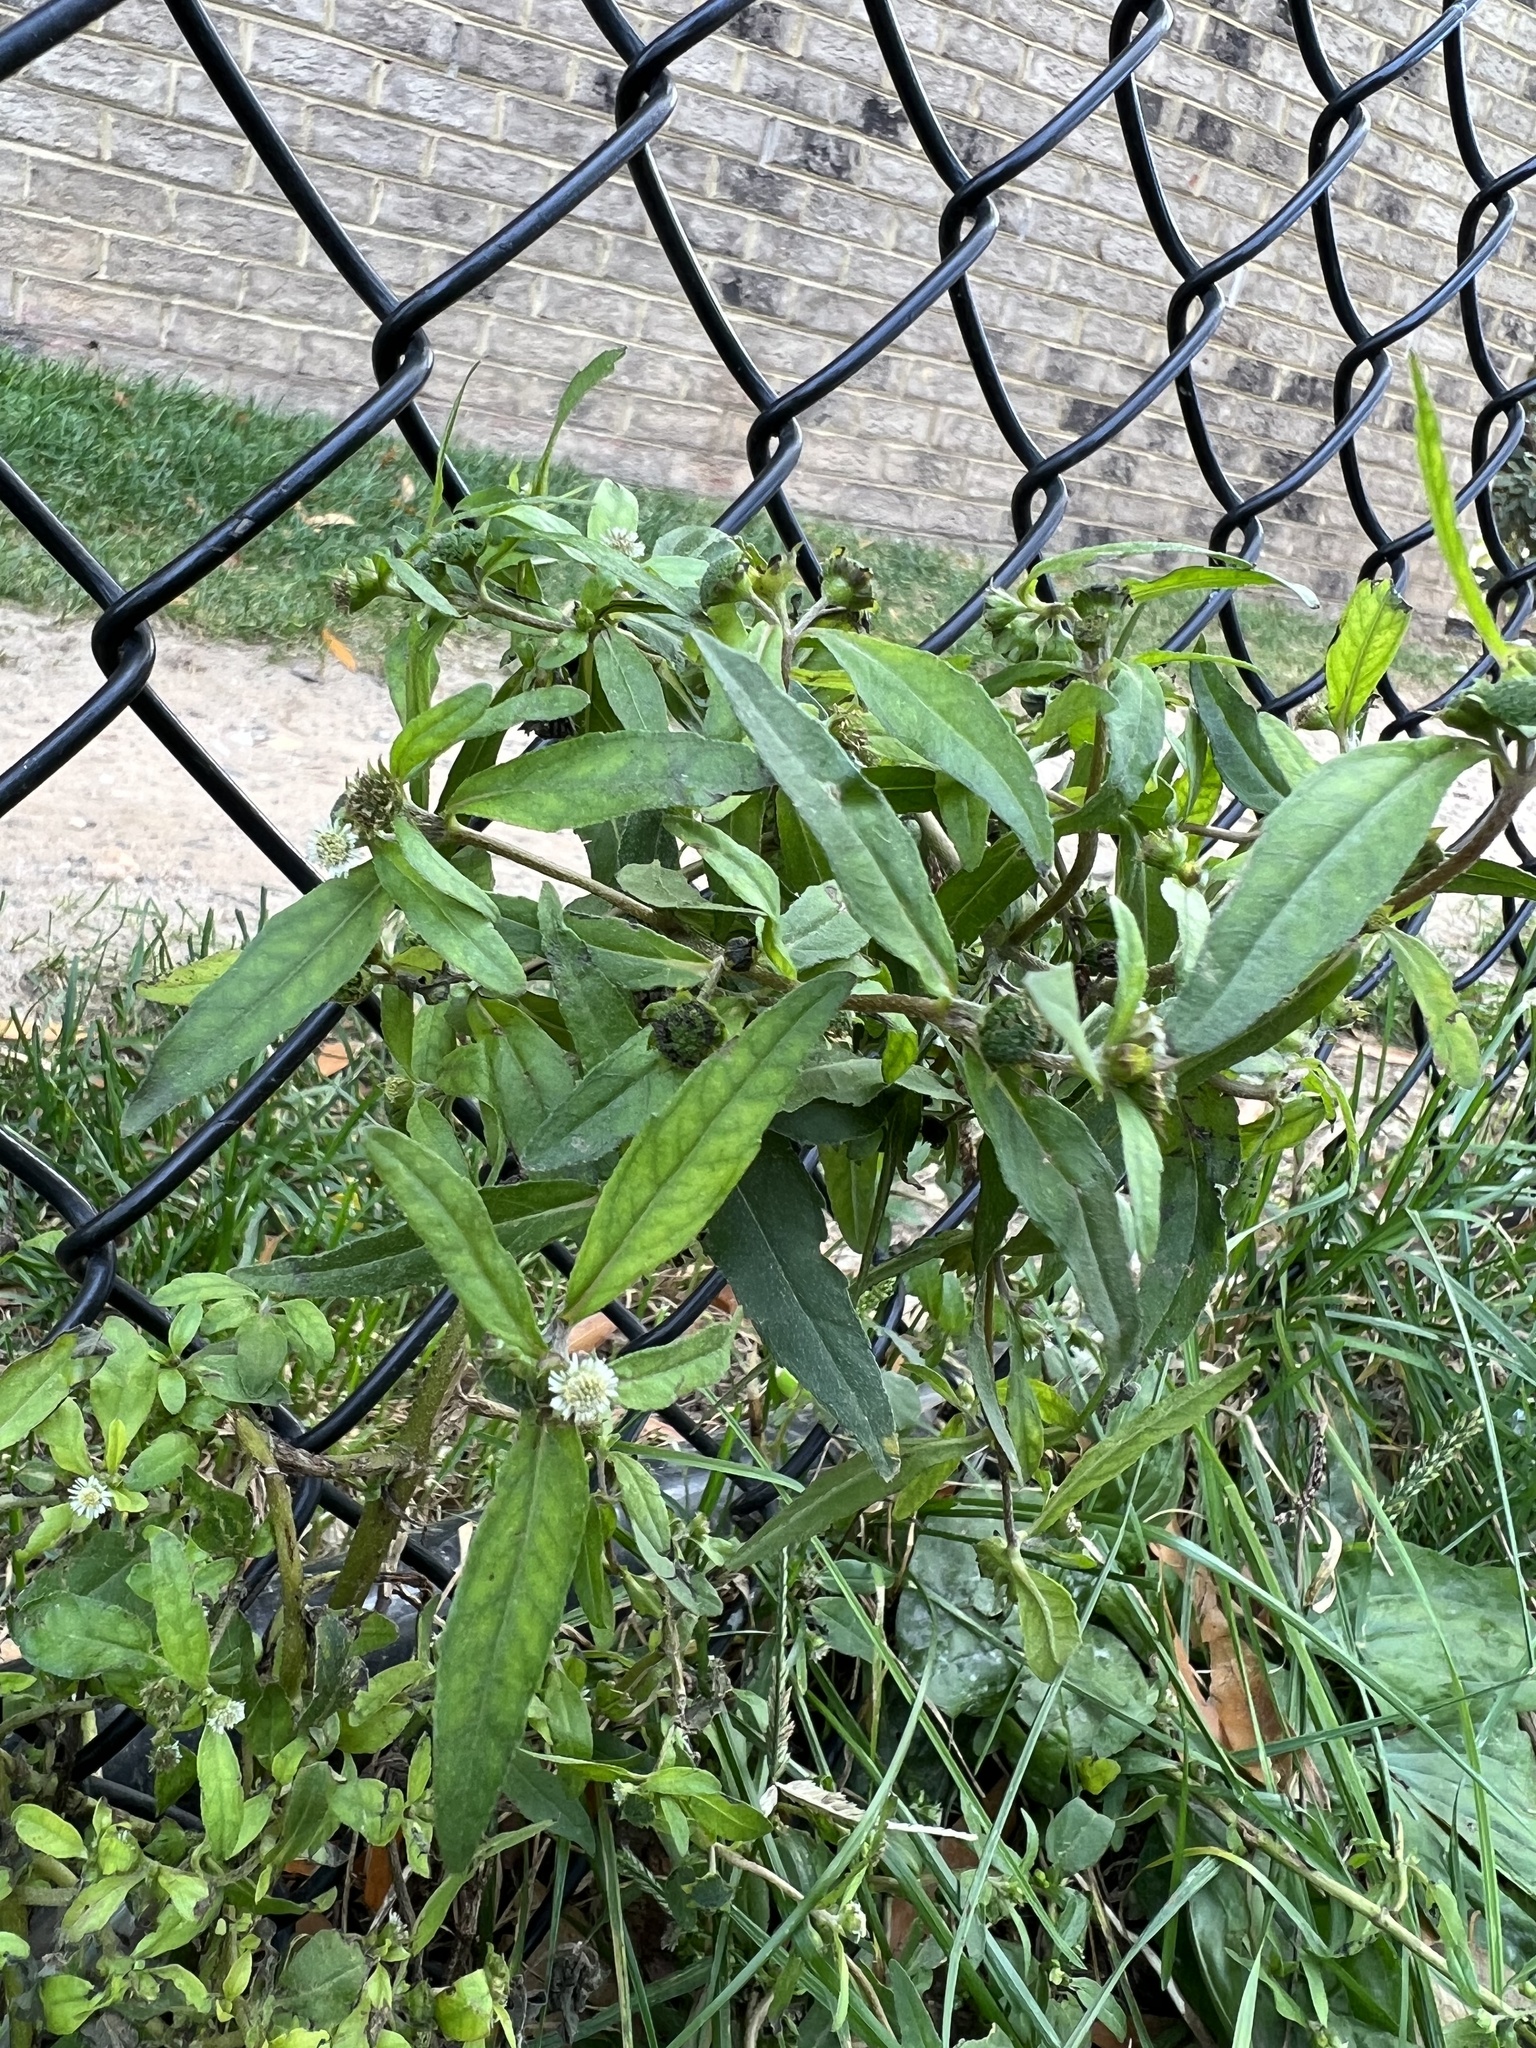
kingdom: Plantae
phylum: Tracheophyta
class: Magnoliopsida
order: Asterales
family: Asteraceae
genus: Eclipta
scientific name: Eclipta prostrata
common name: False daisy
